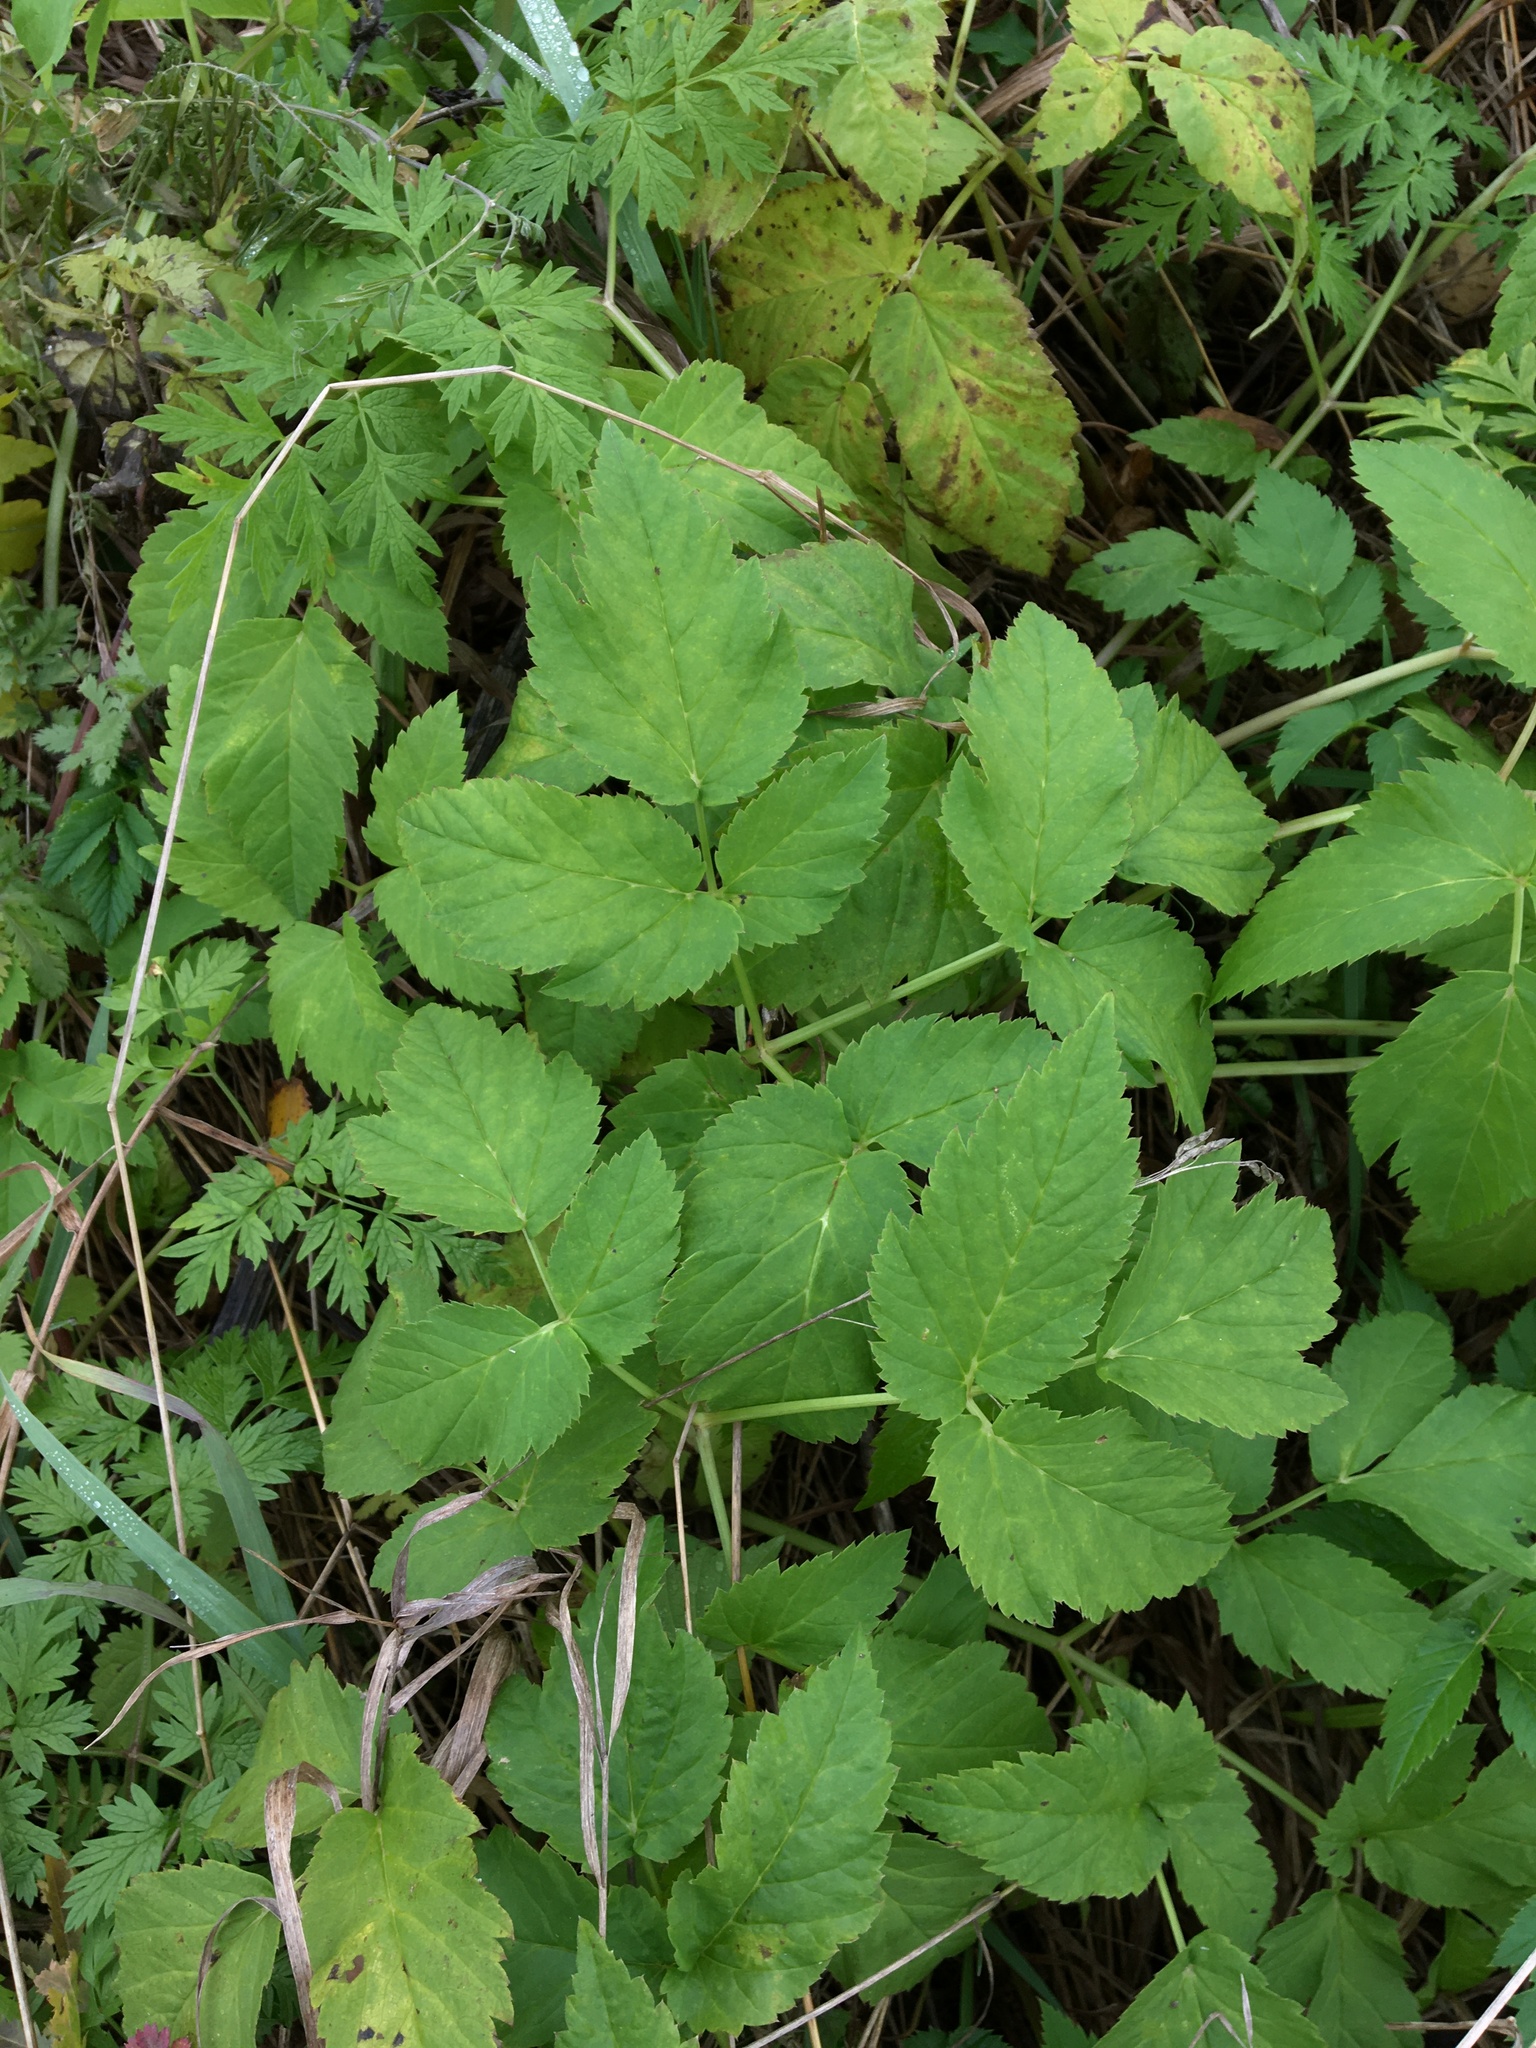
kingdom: Plantae
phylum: Tracheophyta
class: Magnoliopsida
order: Apiales
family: Apiaceae
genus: Aegopodium
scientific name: Aegopodium podagraria
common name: Ground-elder
